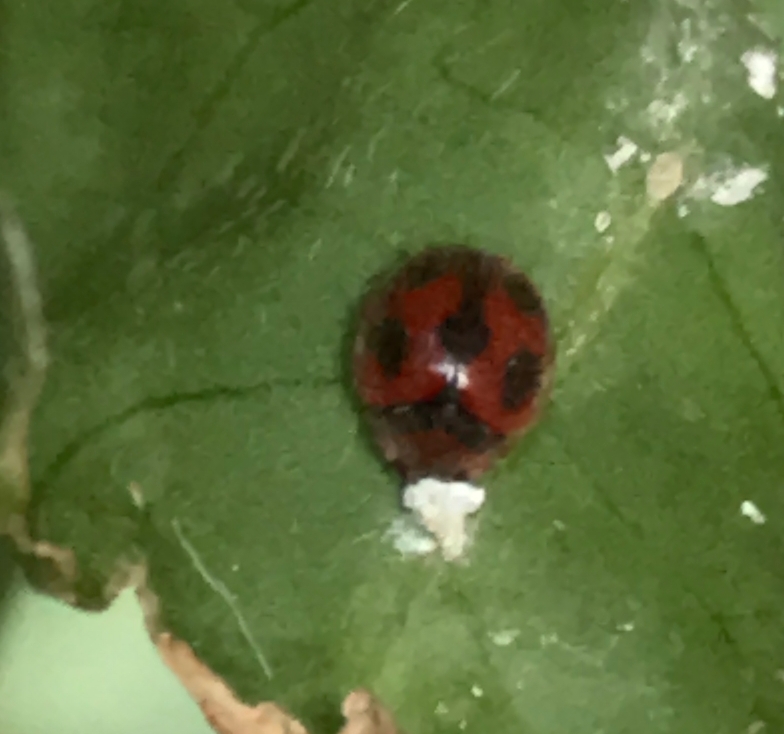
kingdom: Animalia
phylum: Arthropoda
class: Insecta
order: Coleoptera
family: Coccinellidae
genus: Novius
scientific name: Novius cardinalis
